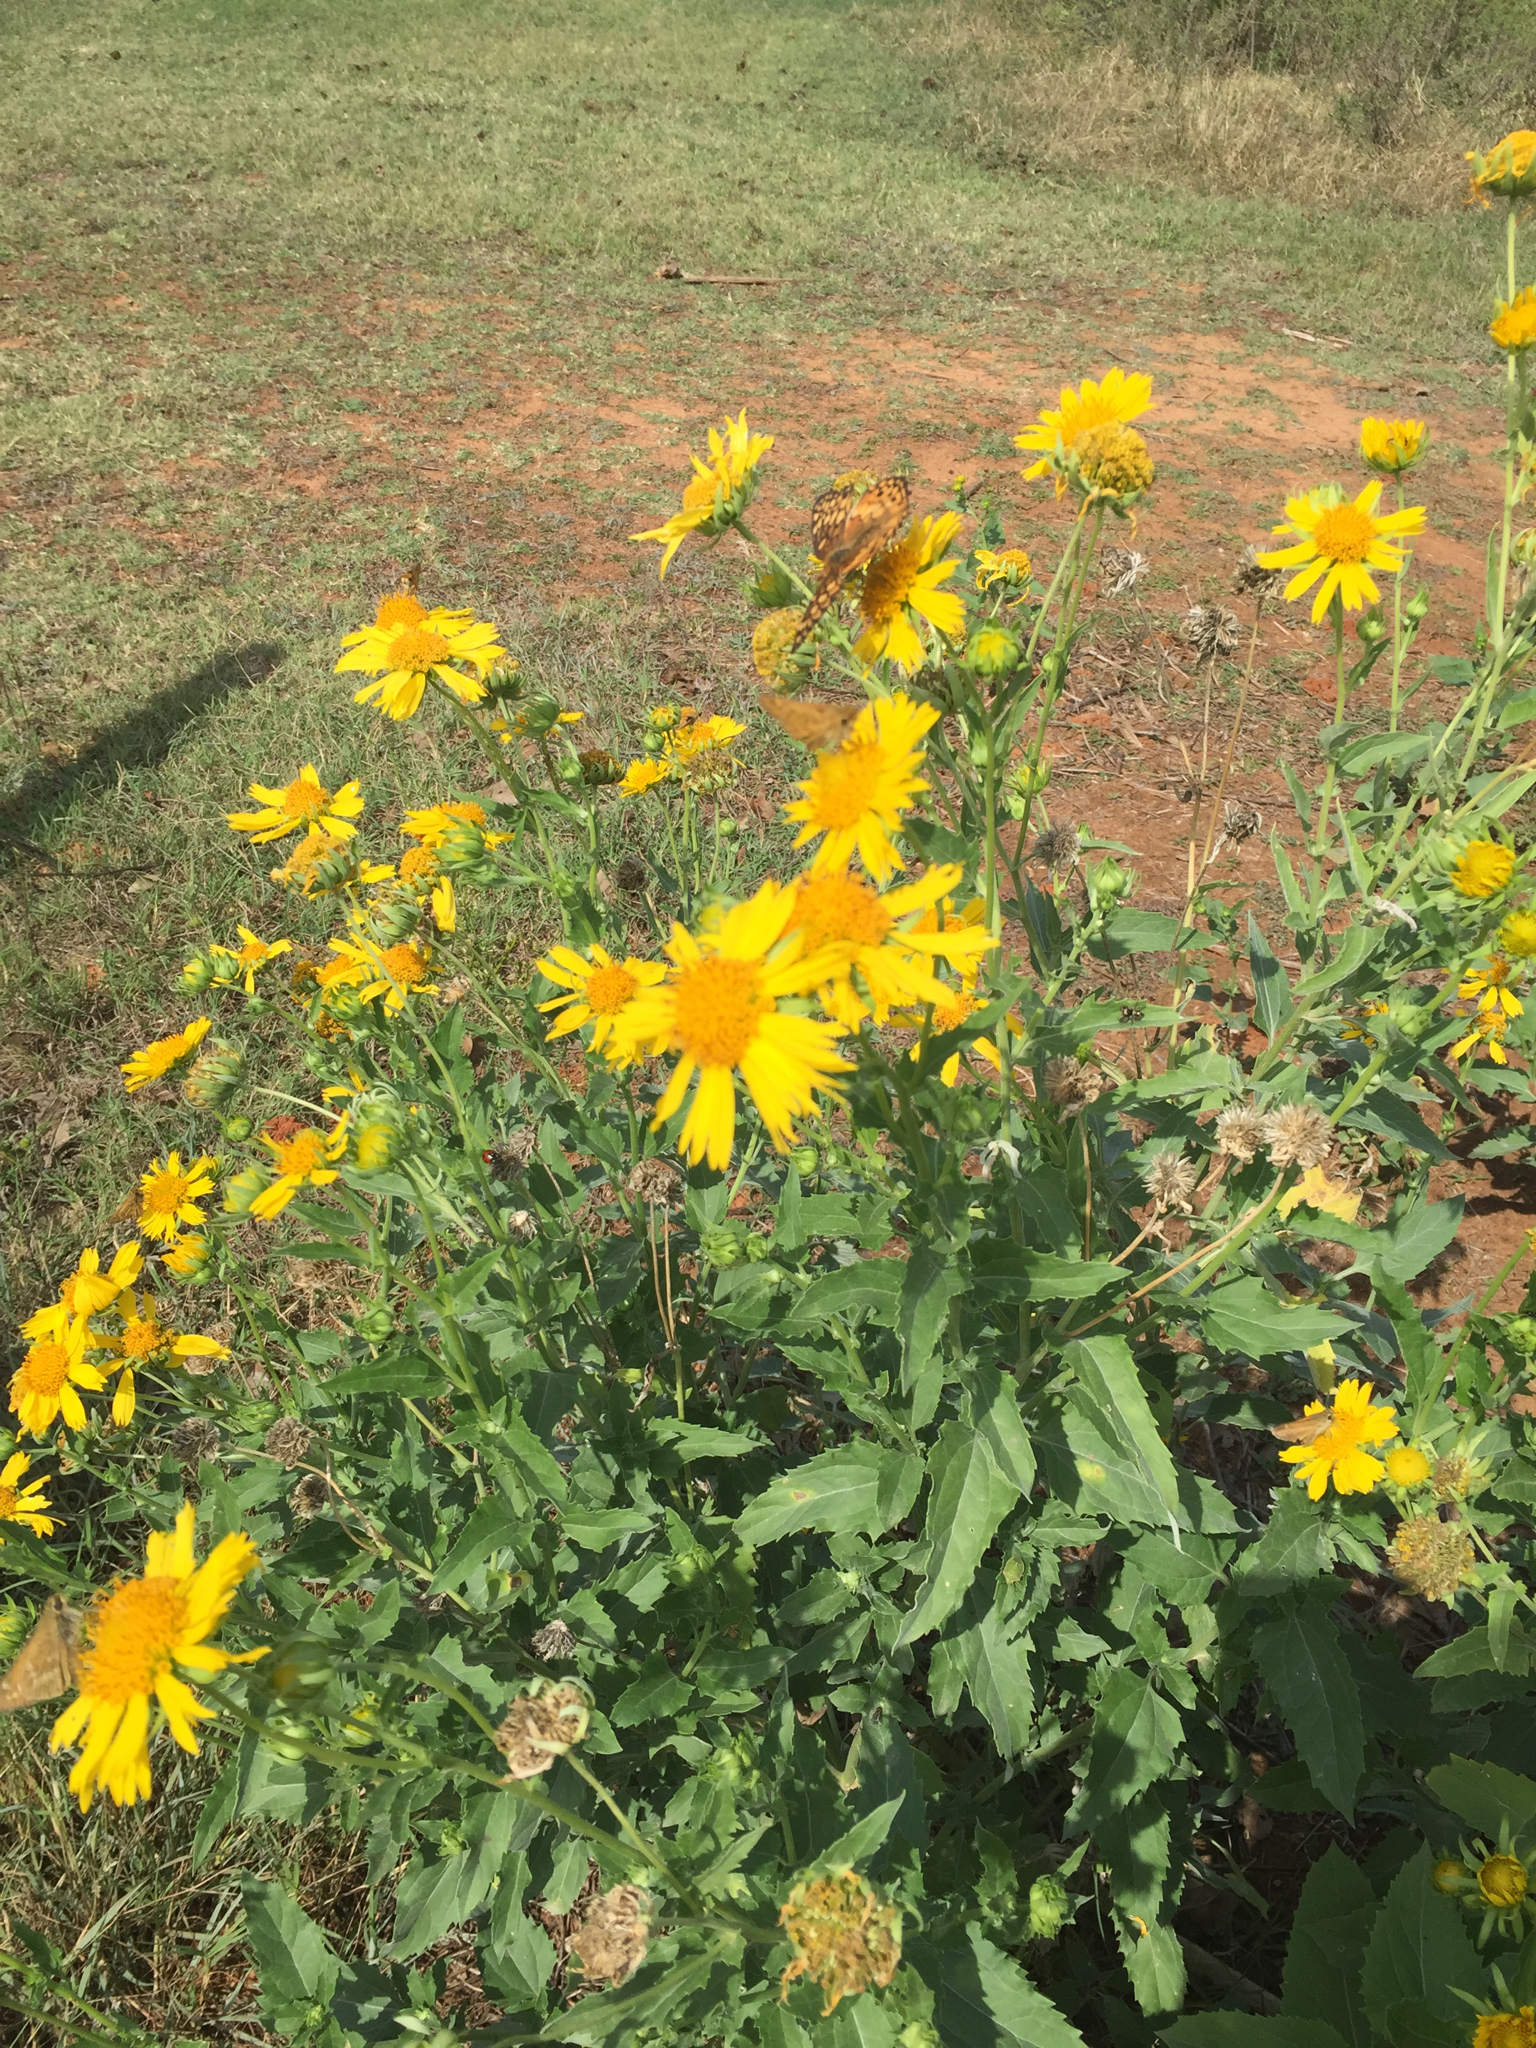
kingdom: Animalia
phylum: Arthropoda
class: Insecta
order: Lepidoptera
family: Nymphalidae
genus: Euptoieta
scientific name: Euptoieta claudia
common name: Variegated fritillary
